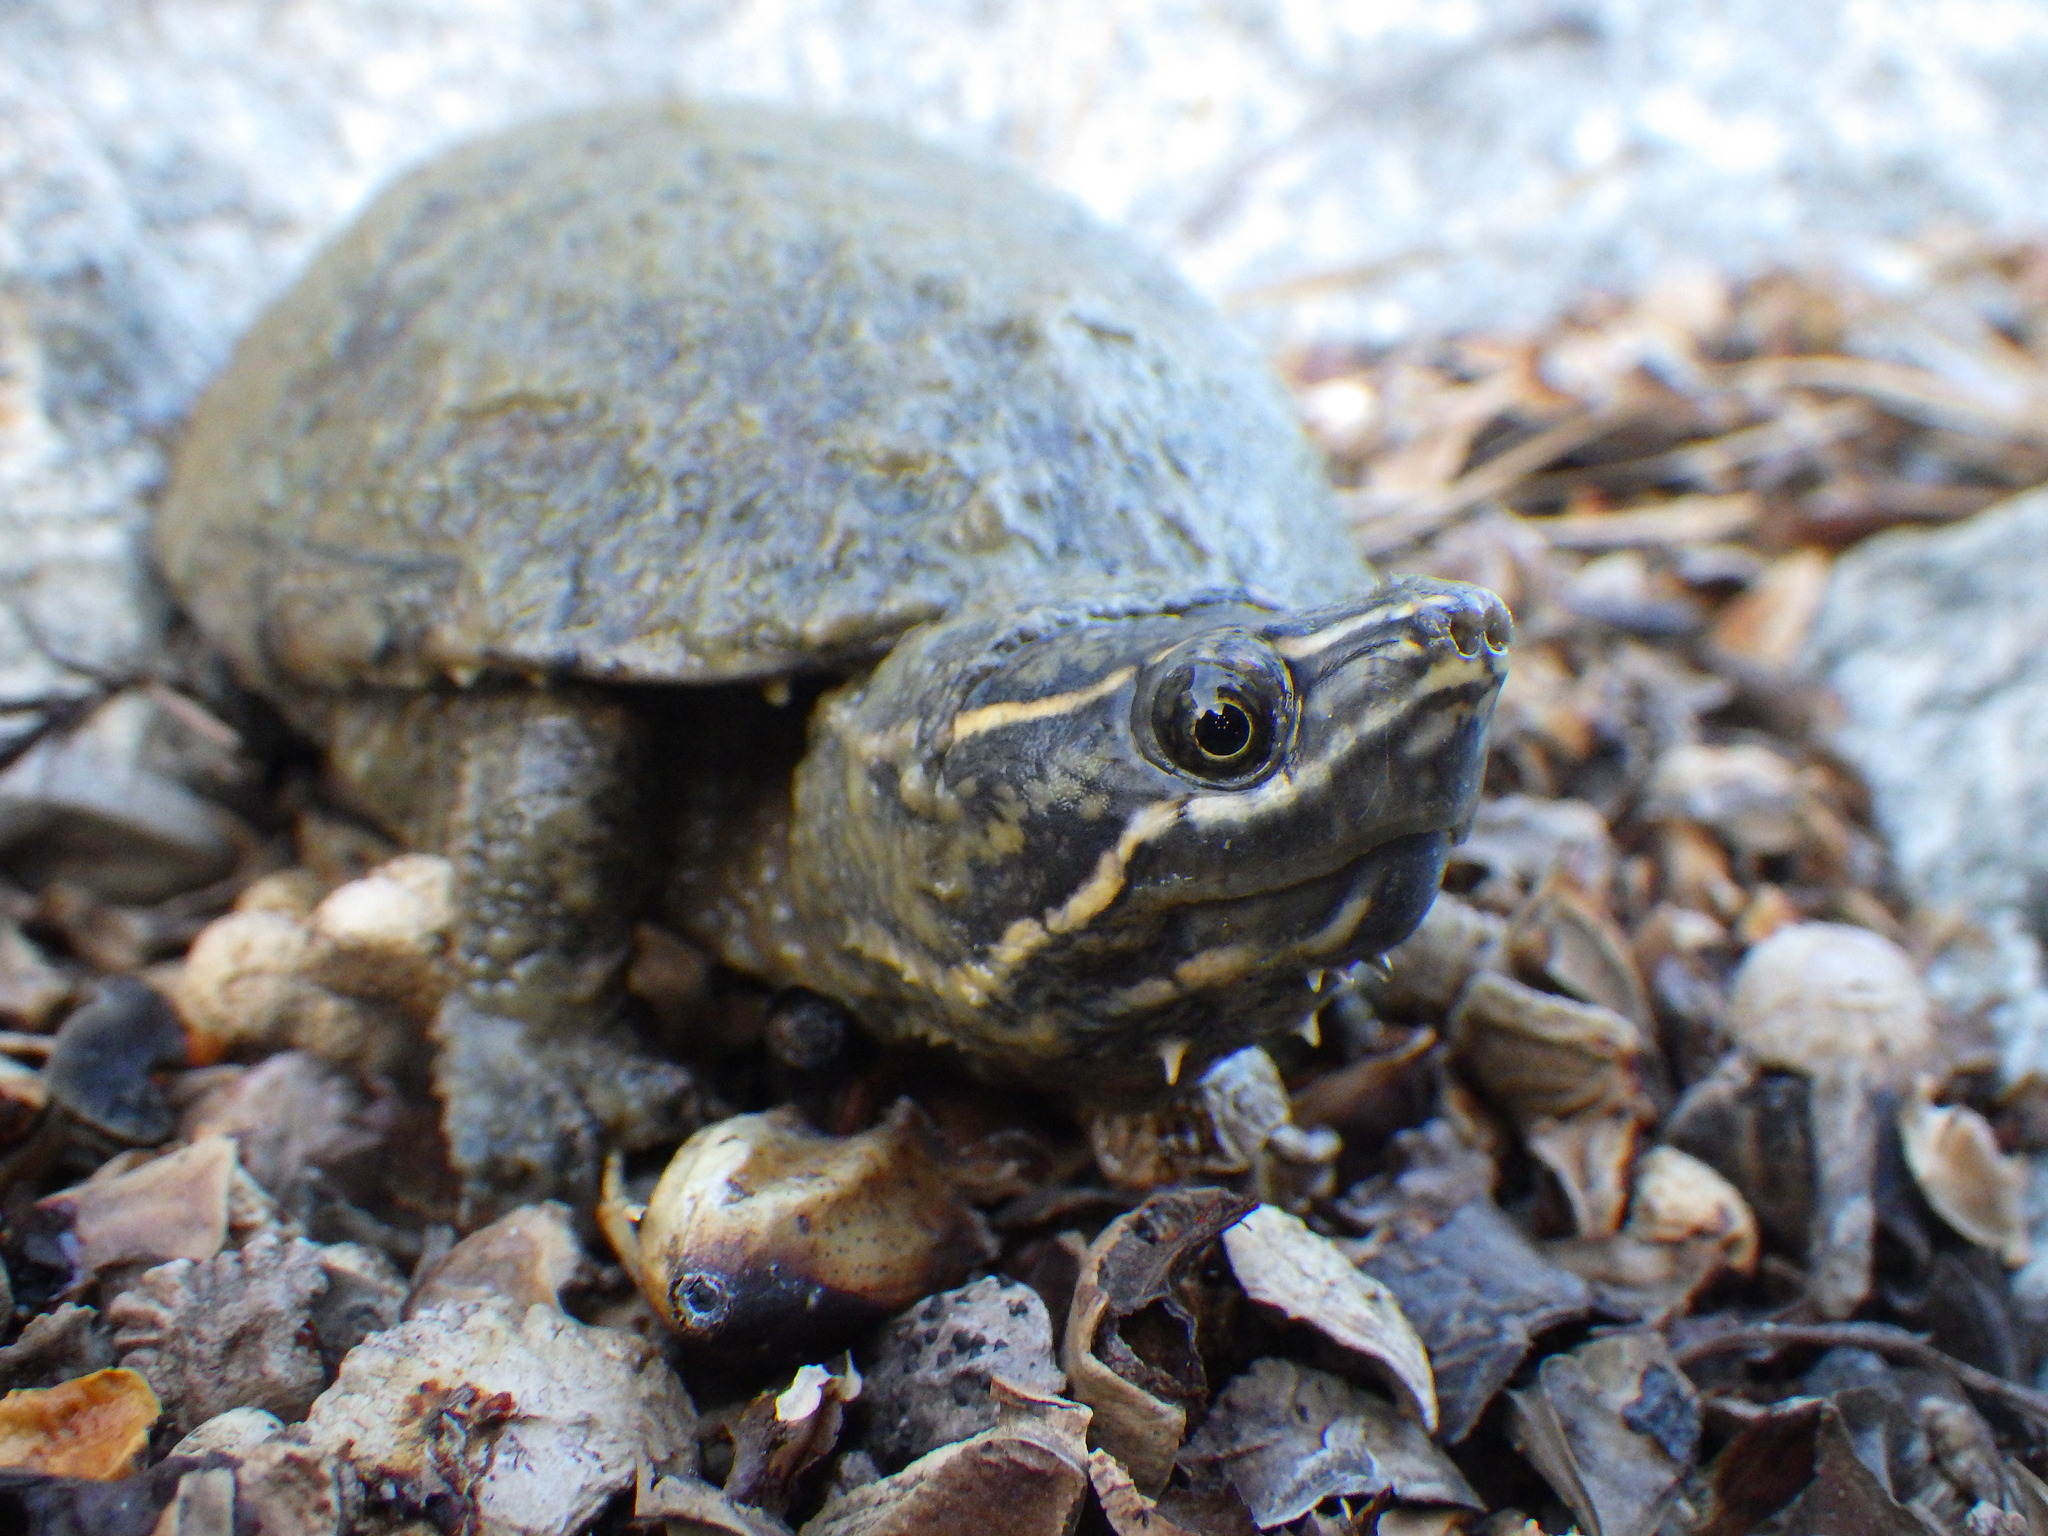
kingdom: Animalia
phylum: Chordata
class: Testudines
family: Kinosternidae
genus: Sternotherus
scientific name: Sternotherus odoratus
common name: Common musk turtle
